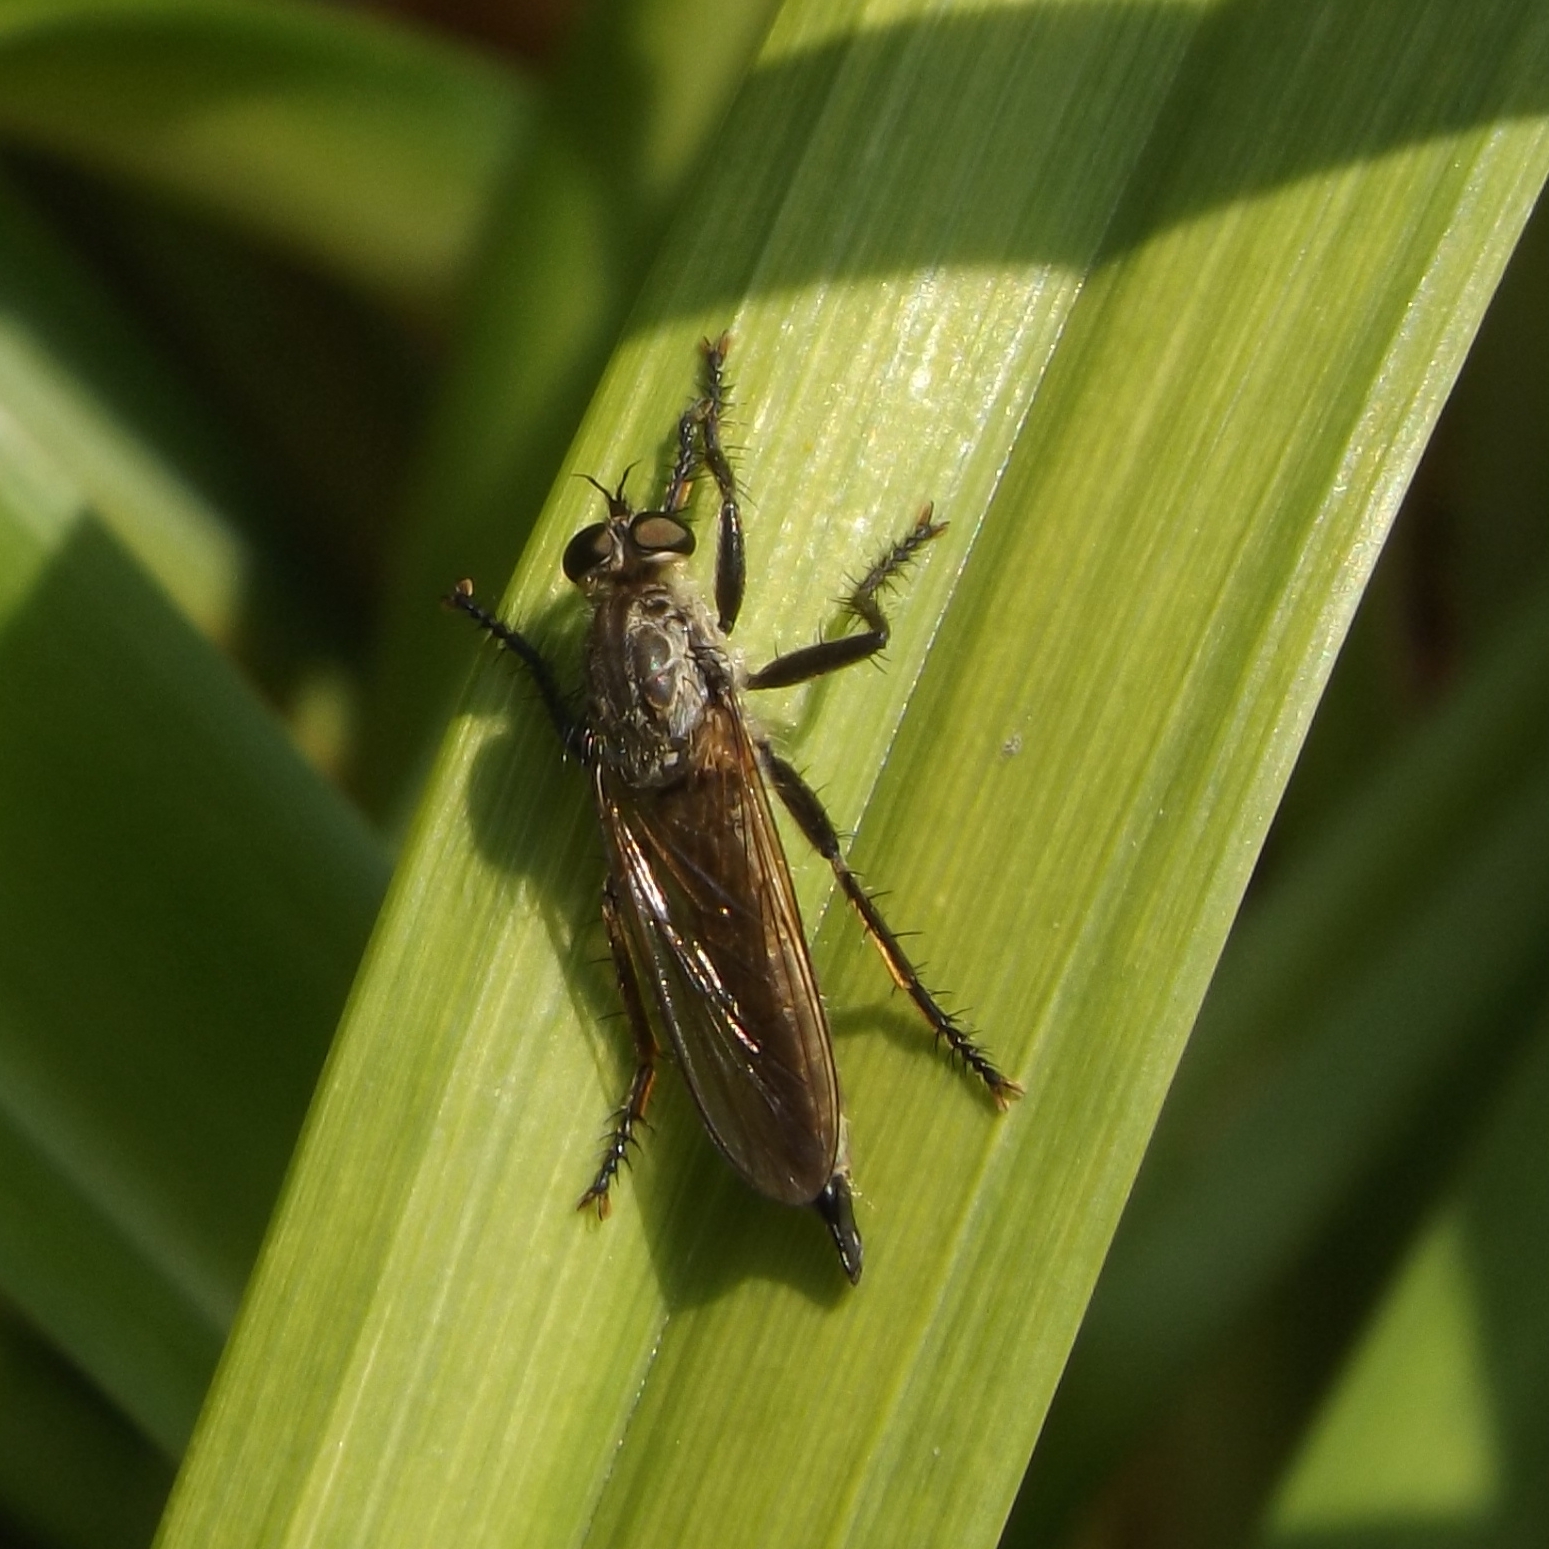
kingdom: Animalia
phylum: Arthropoda
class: Insecta
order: Diptera
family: Asilidae
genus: Eutolmus
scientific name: Eutolmus rufibarbis
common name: Golden-tabbed robberfly
